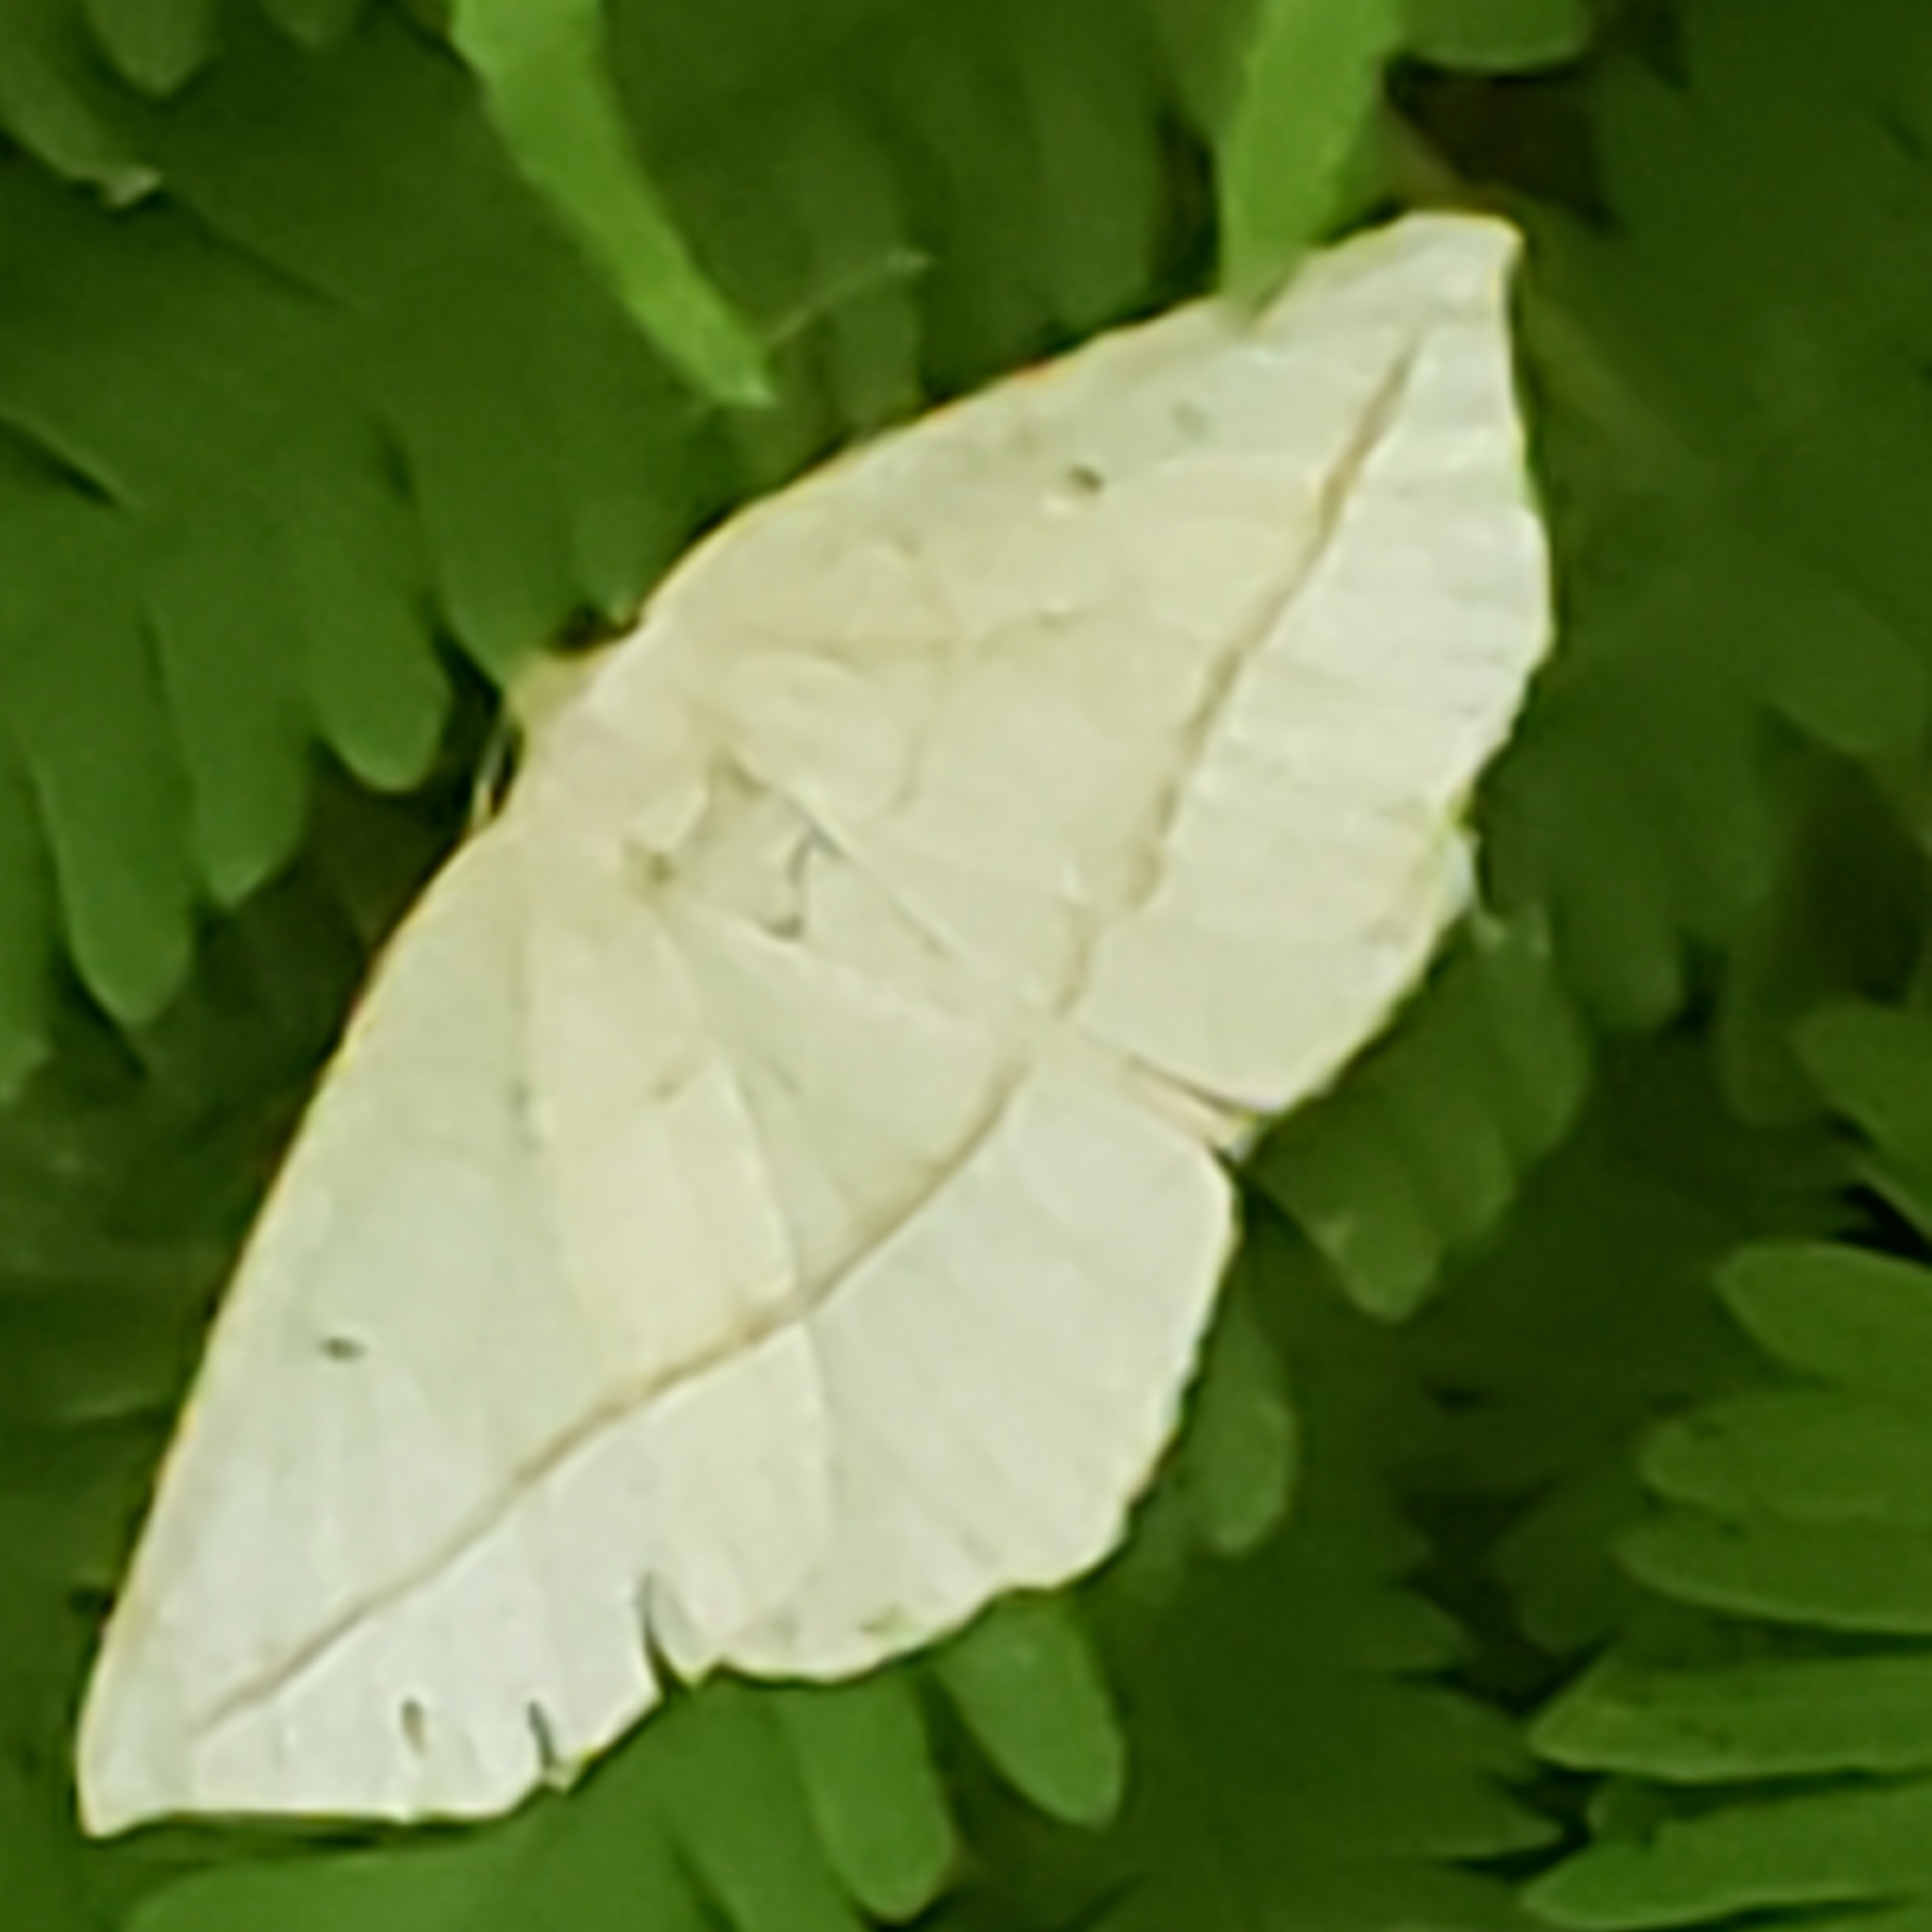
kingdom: Animalia
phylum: Arthropoda
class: Insecta
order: Lepidoptera
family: Geometridae
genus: Eusarca
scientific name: Eusarca confusaria
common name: Confused eusarca
